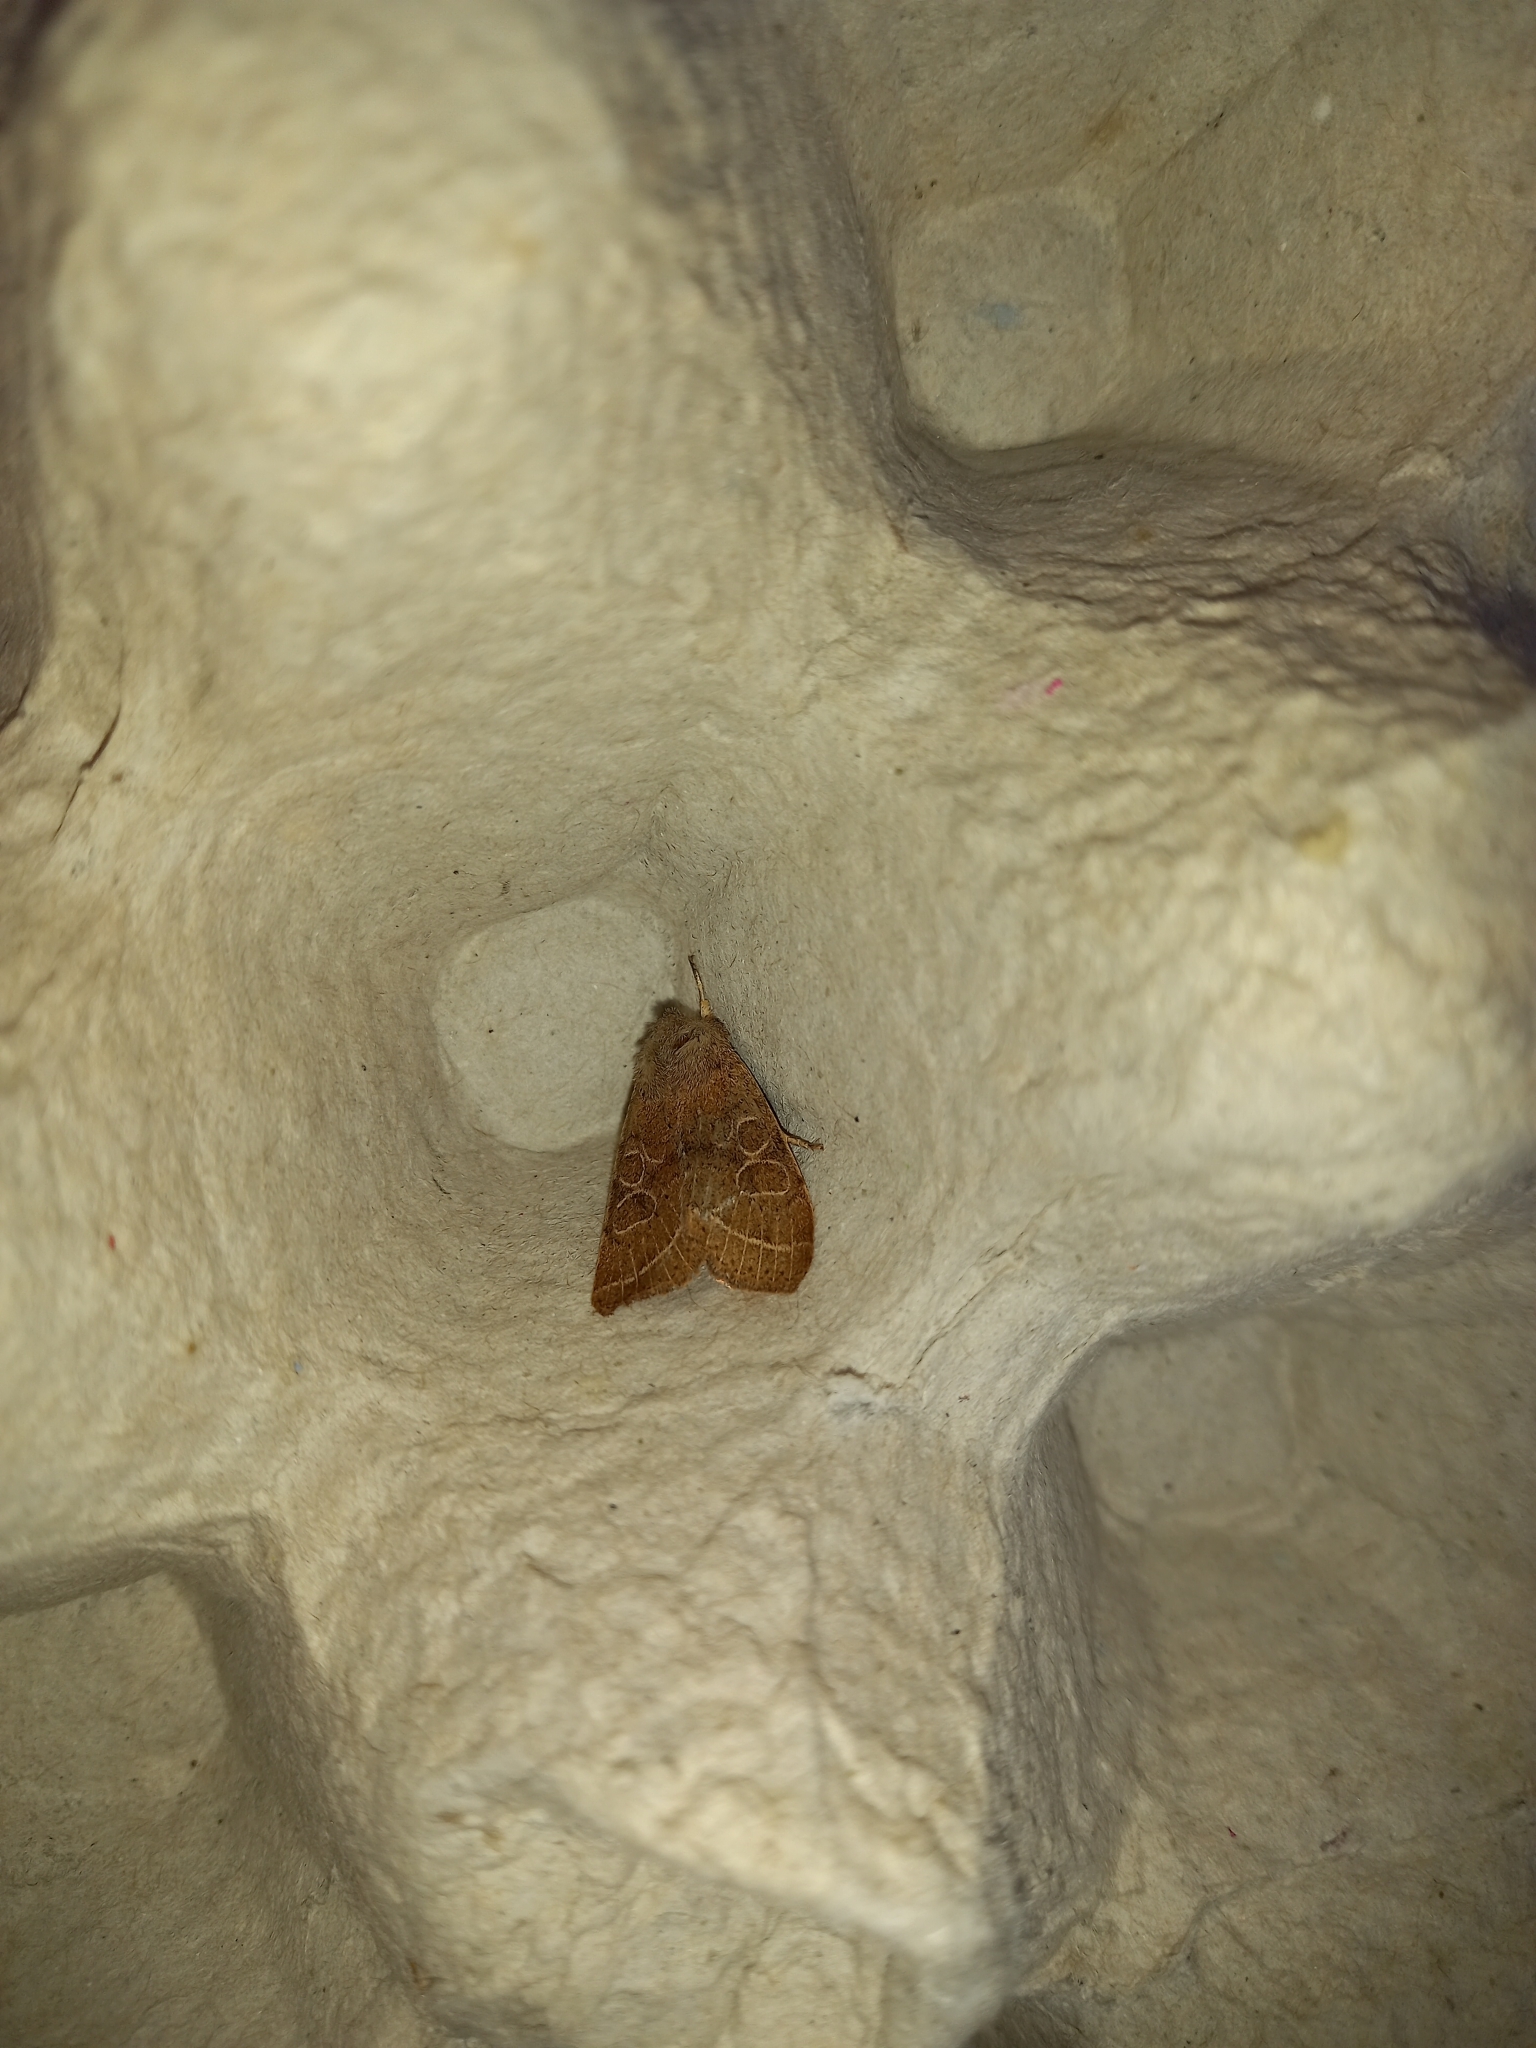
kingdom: Animalia
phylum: Arthropoda
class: Insecta
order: Lepidoptera
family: Noctuidae
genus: Orthosia
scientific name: Orthosia cerasi
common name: Common quaker
